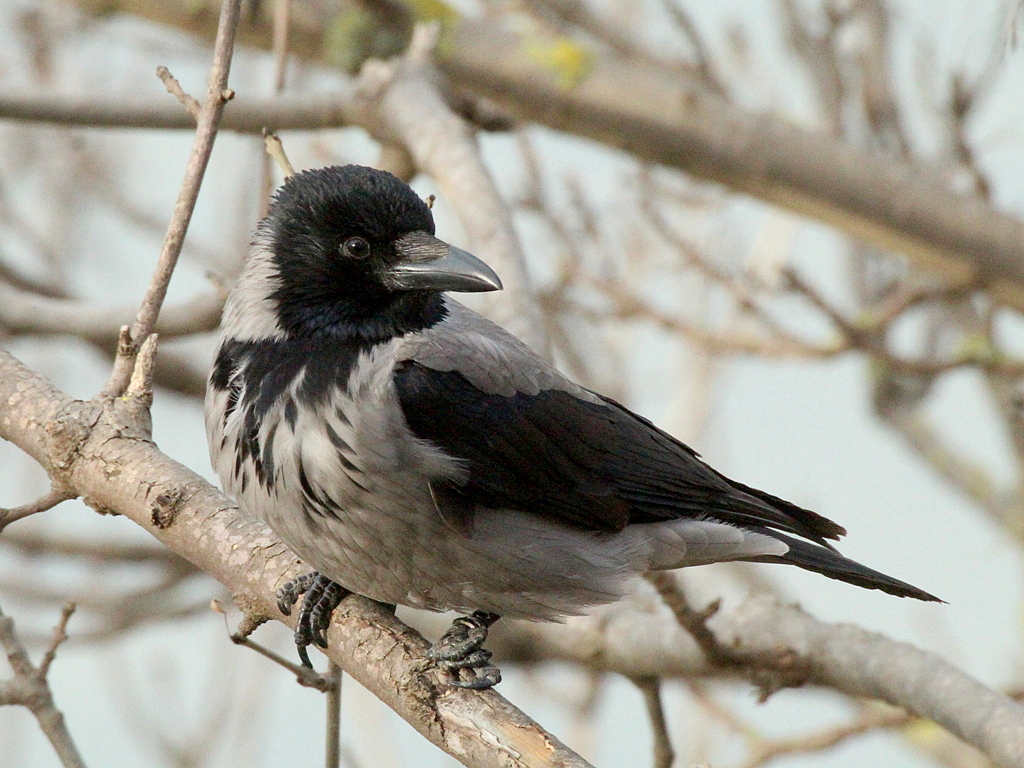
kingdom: Animalia
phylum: Chordata
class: Aves
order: Passeriformes
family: Corvidae
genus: Corvus
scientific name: Corvus cornix
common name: Hooded crow
